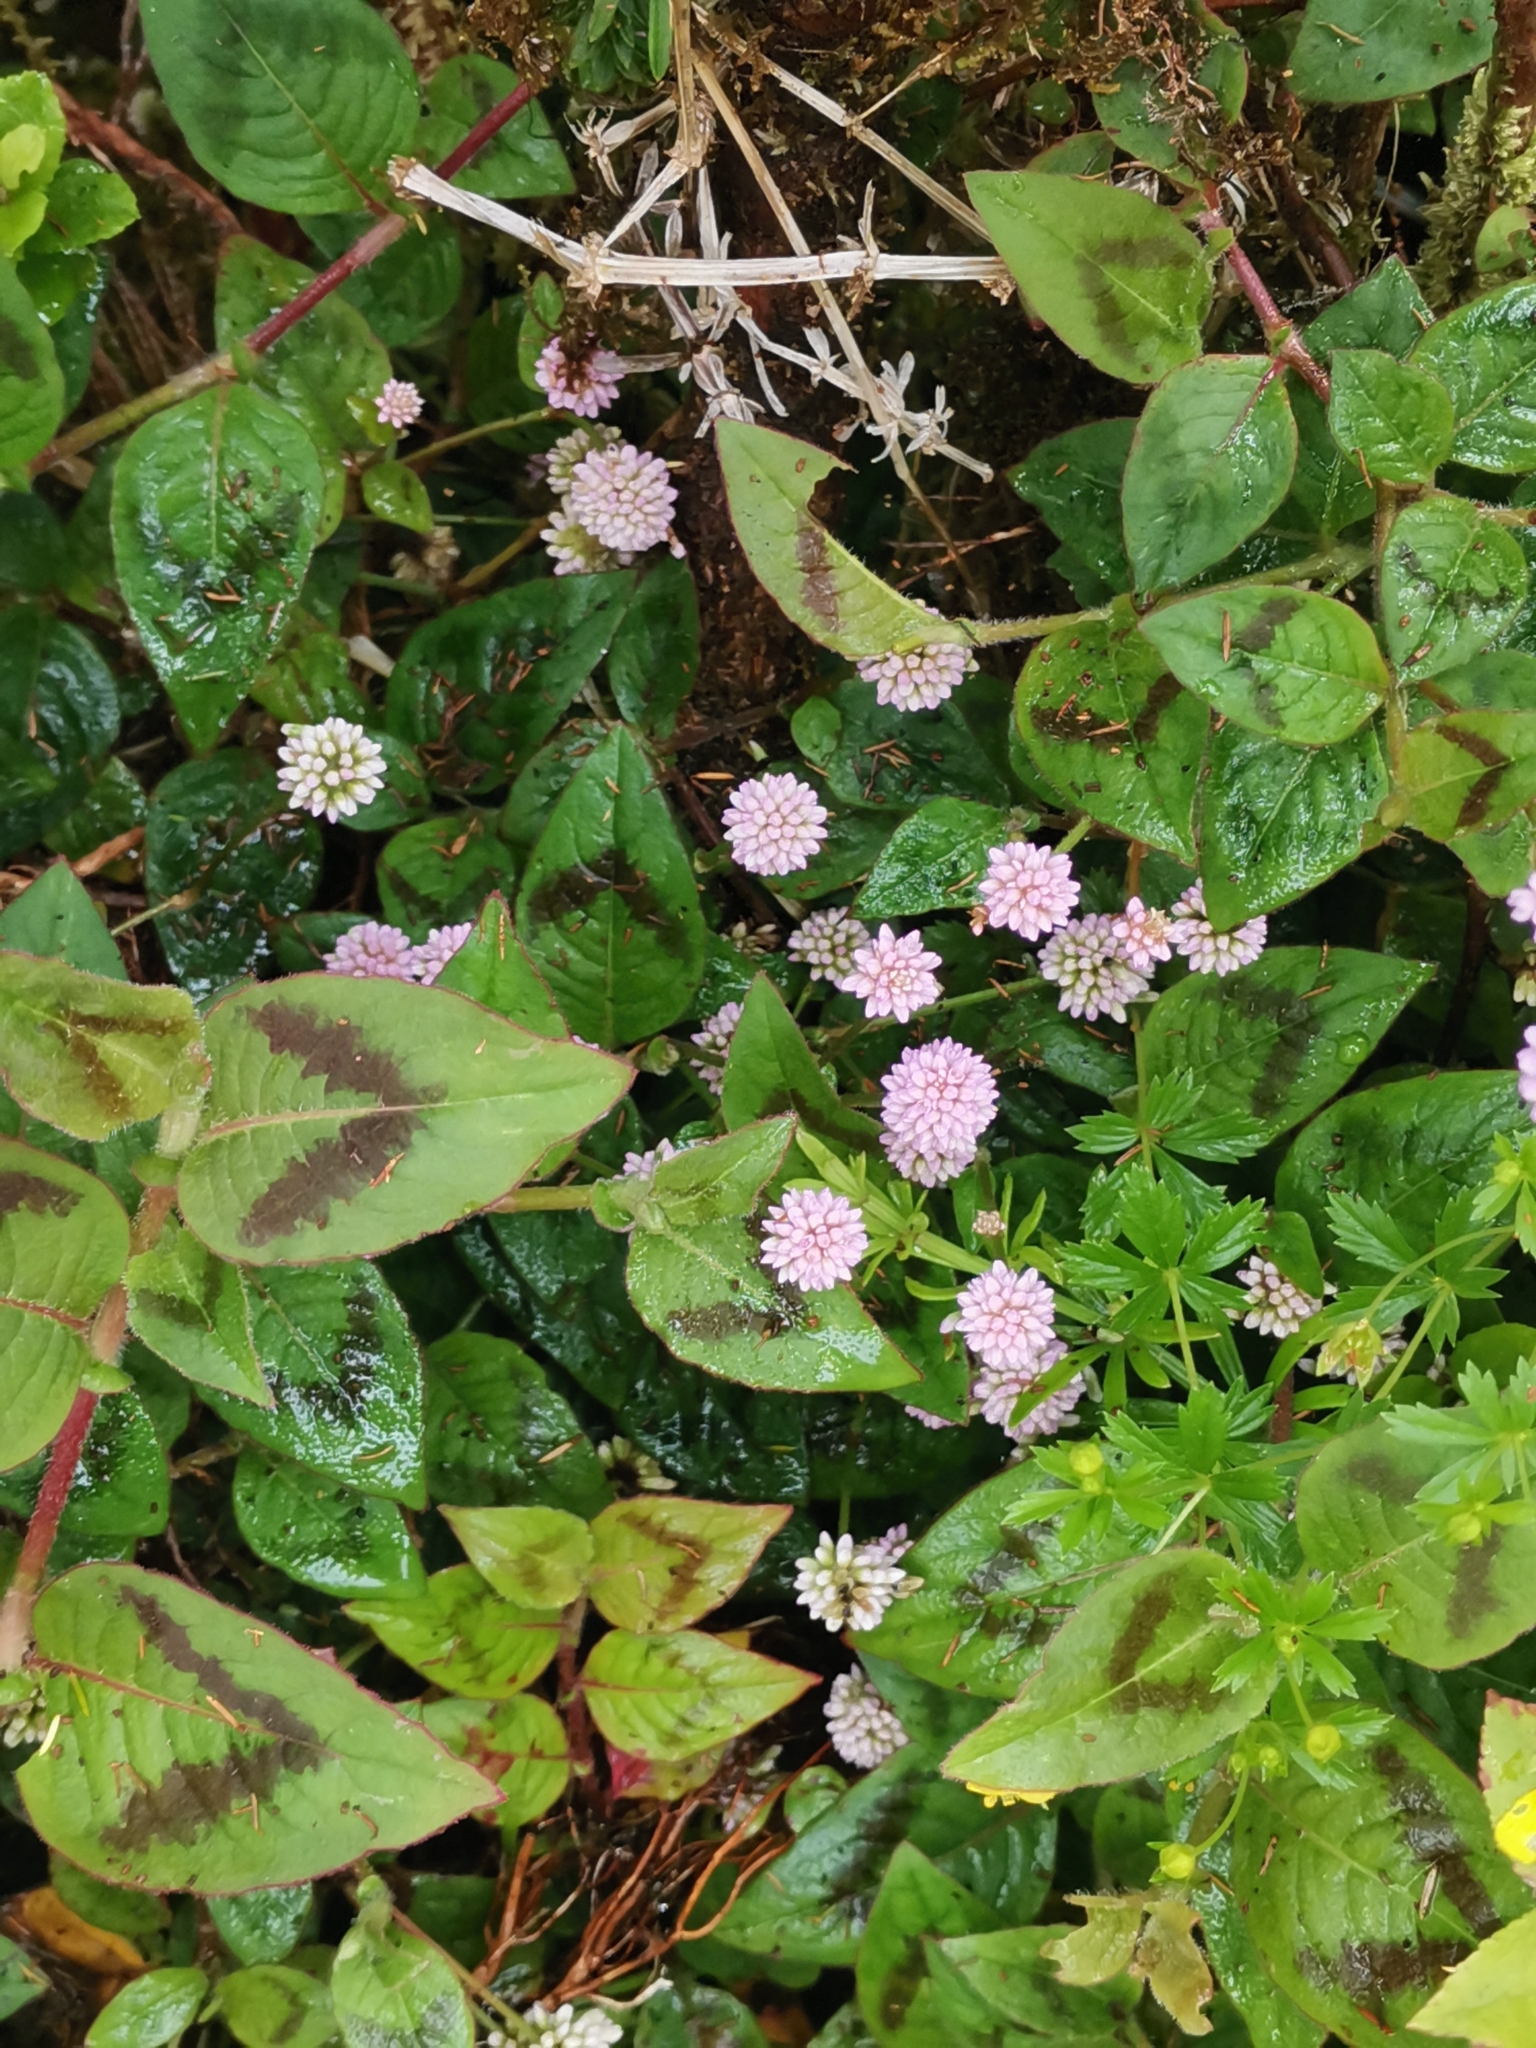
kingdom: Plantae
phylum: Tracheophyta
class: Magnoliopsida
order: Caryophyllales
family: Polygonaceae
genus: Persicaria
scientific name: Persicaria capitata
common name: Pinkhead smartweed
